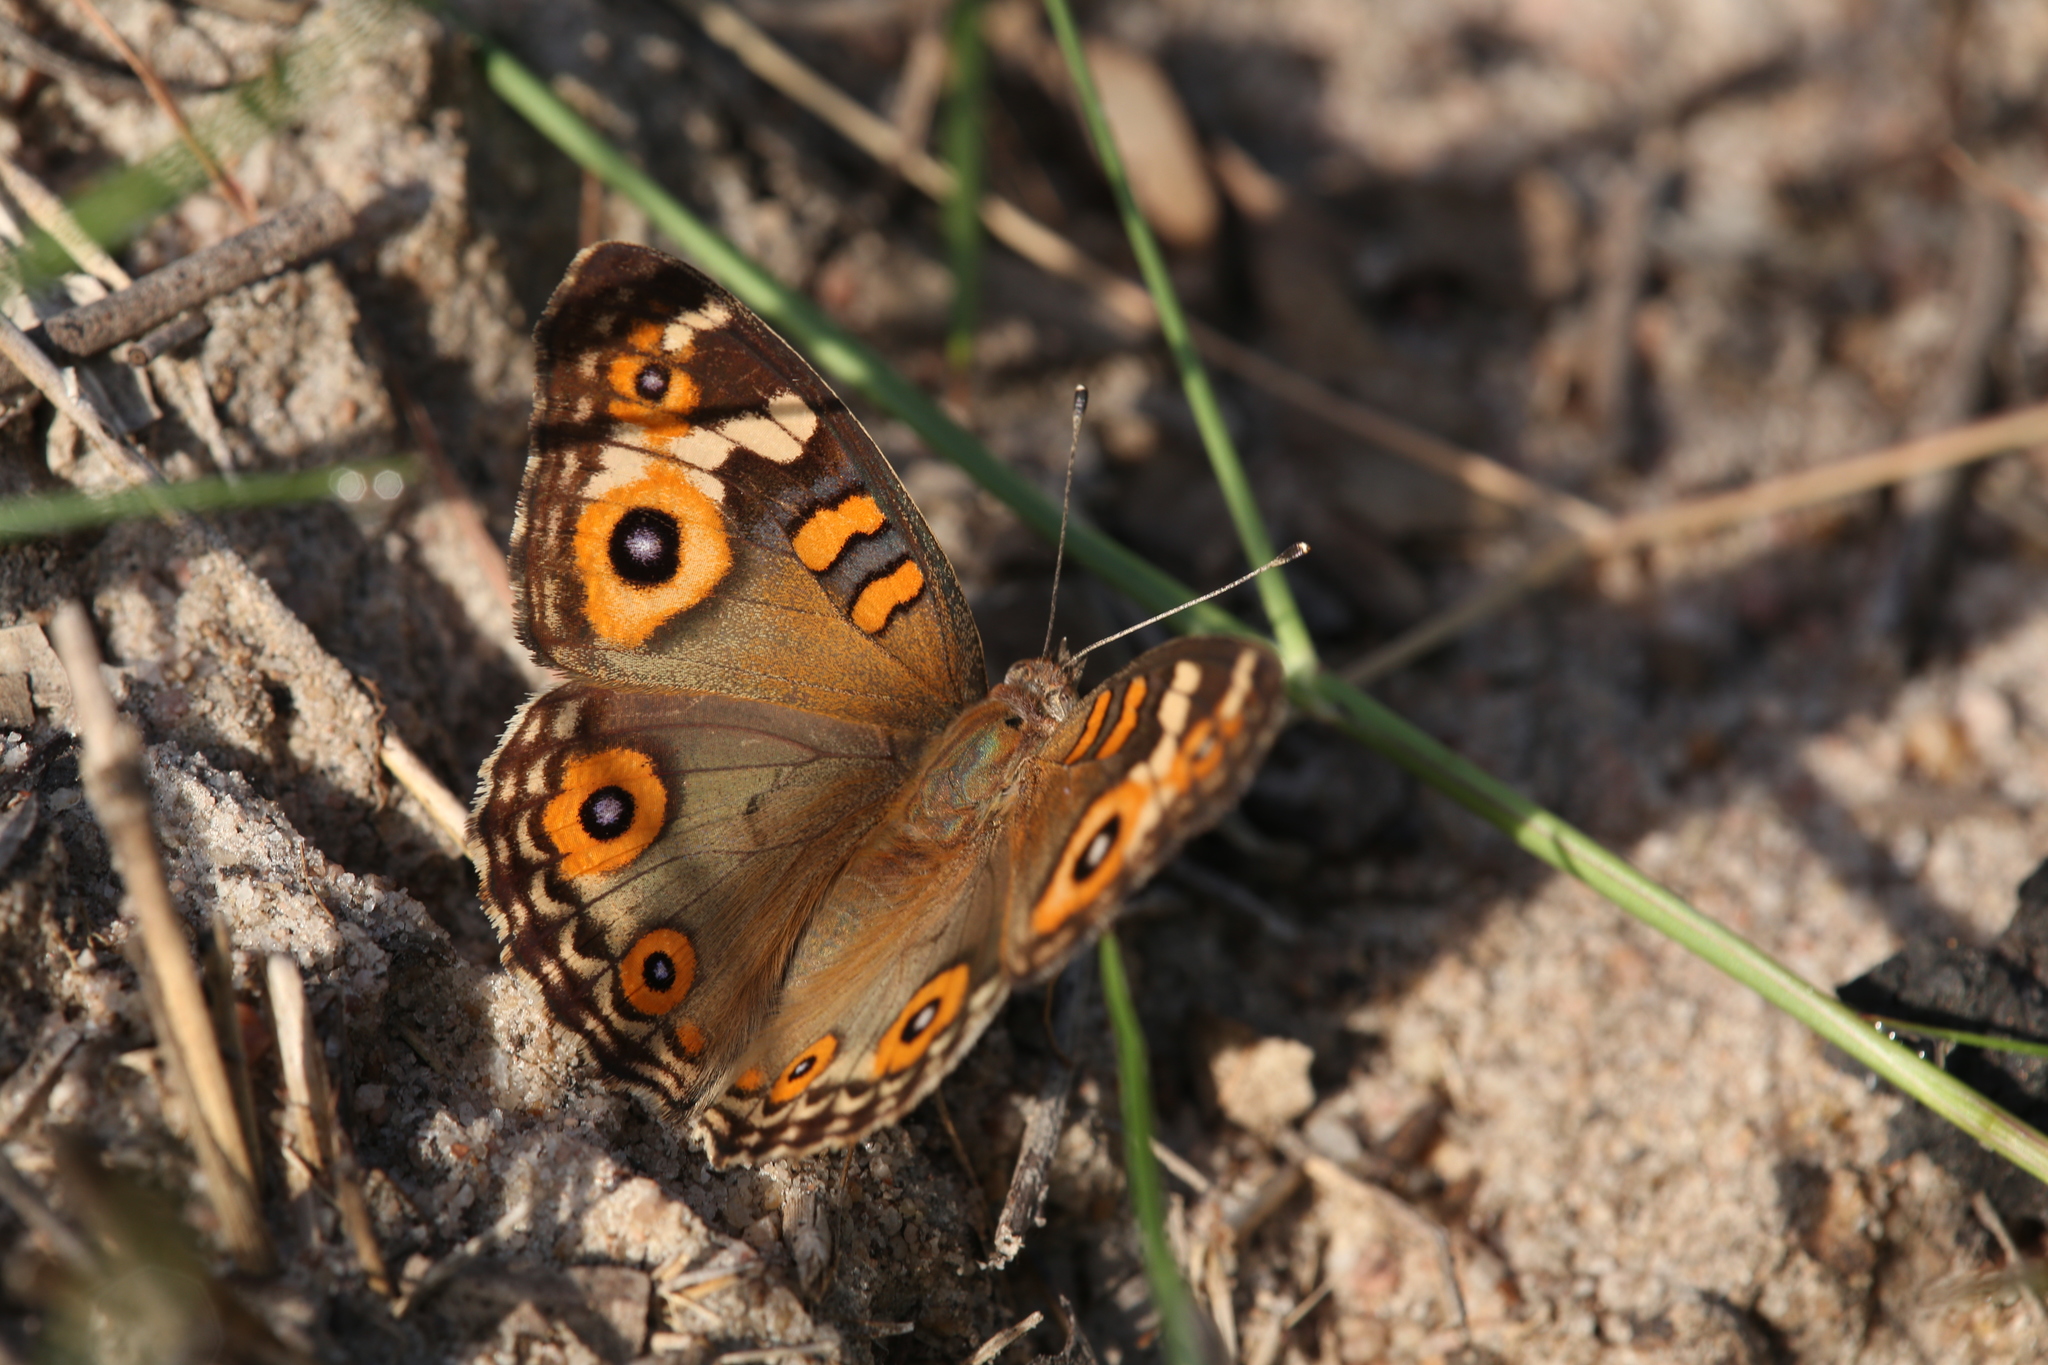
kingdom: Animalia
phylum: Arthropoda
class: Insecta
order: Lepidoptera
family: Nymphalidae
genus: Junonia
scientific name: Junonia villida
